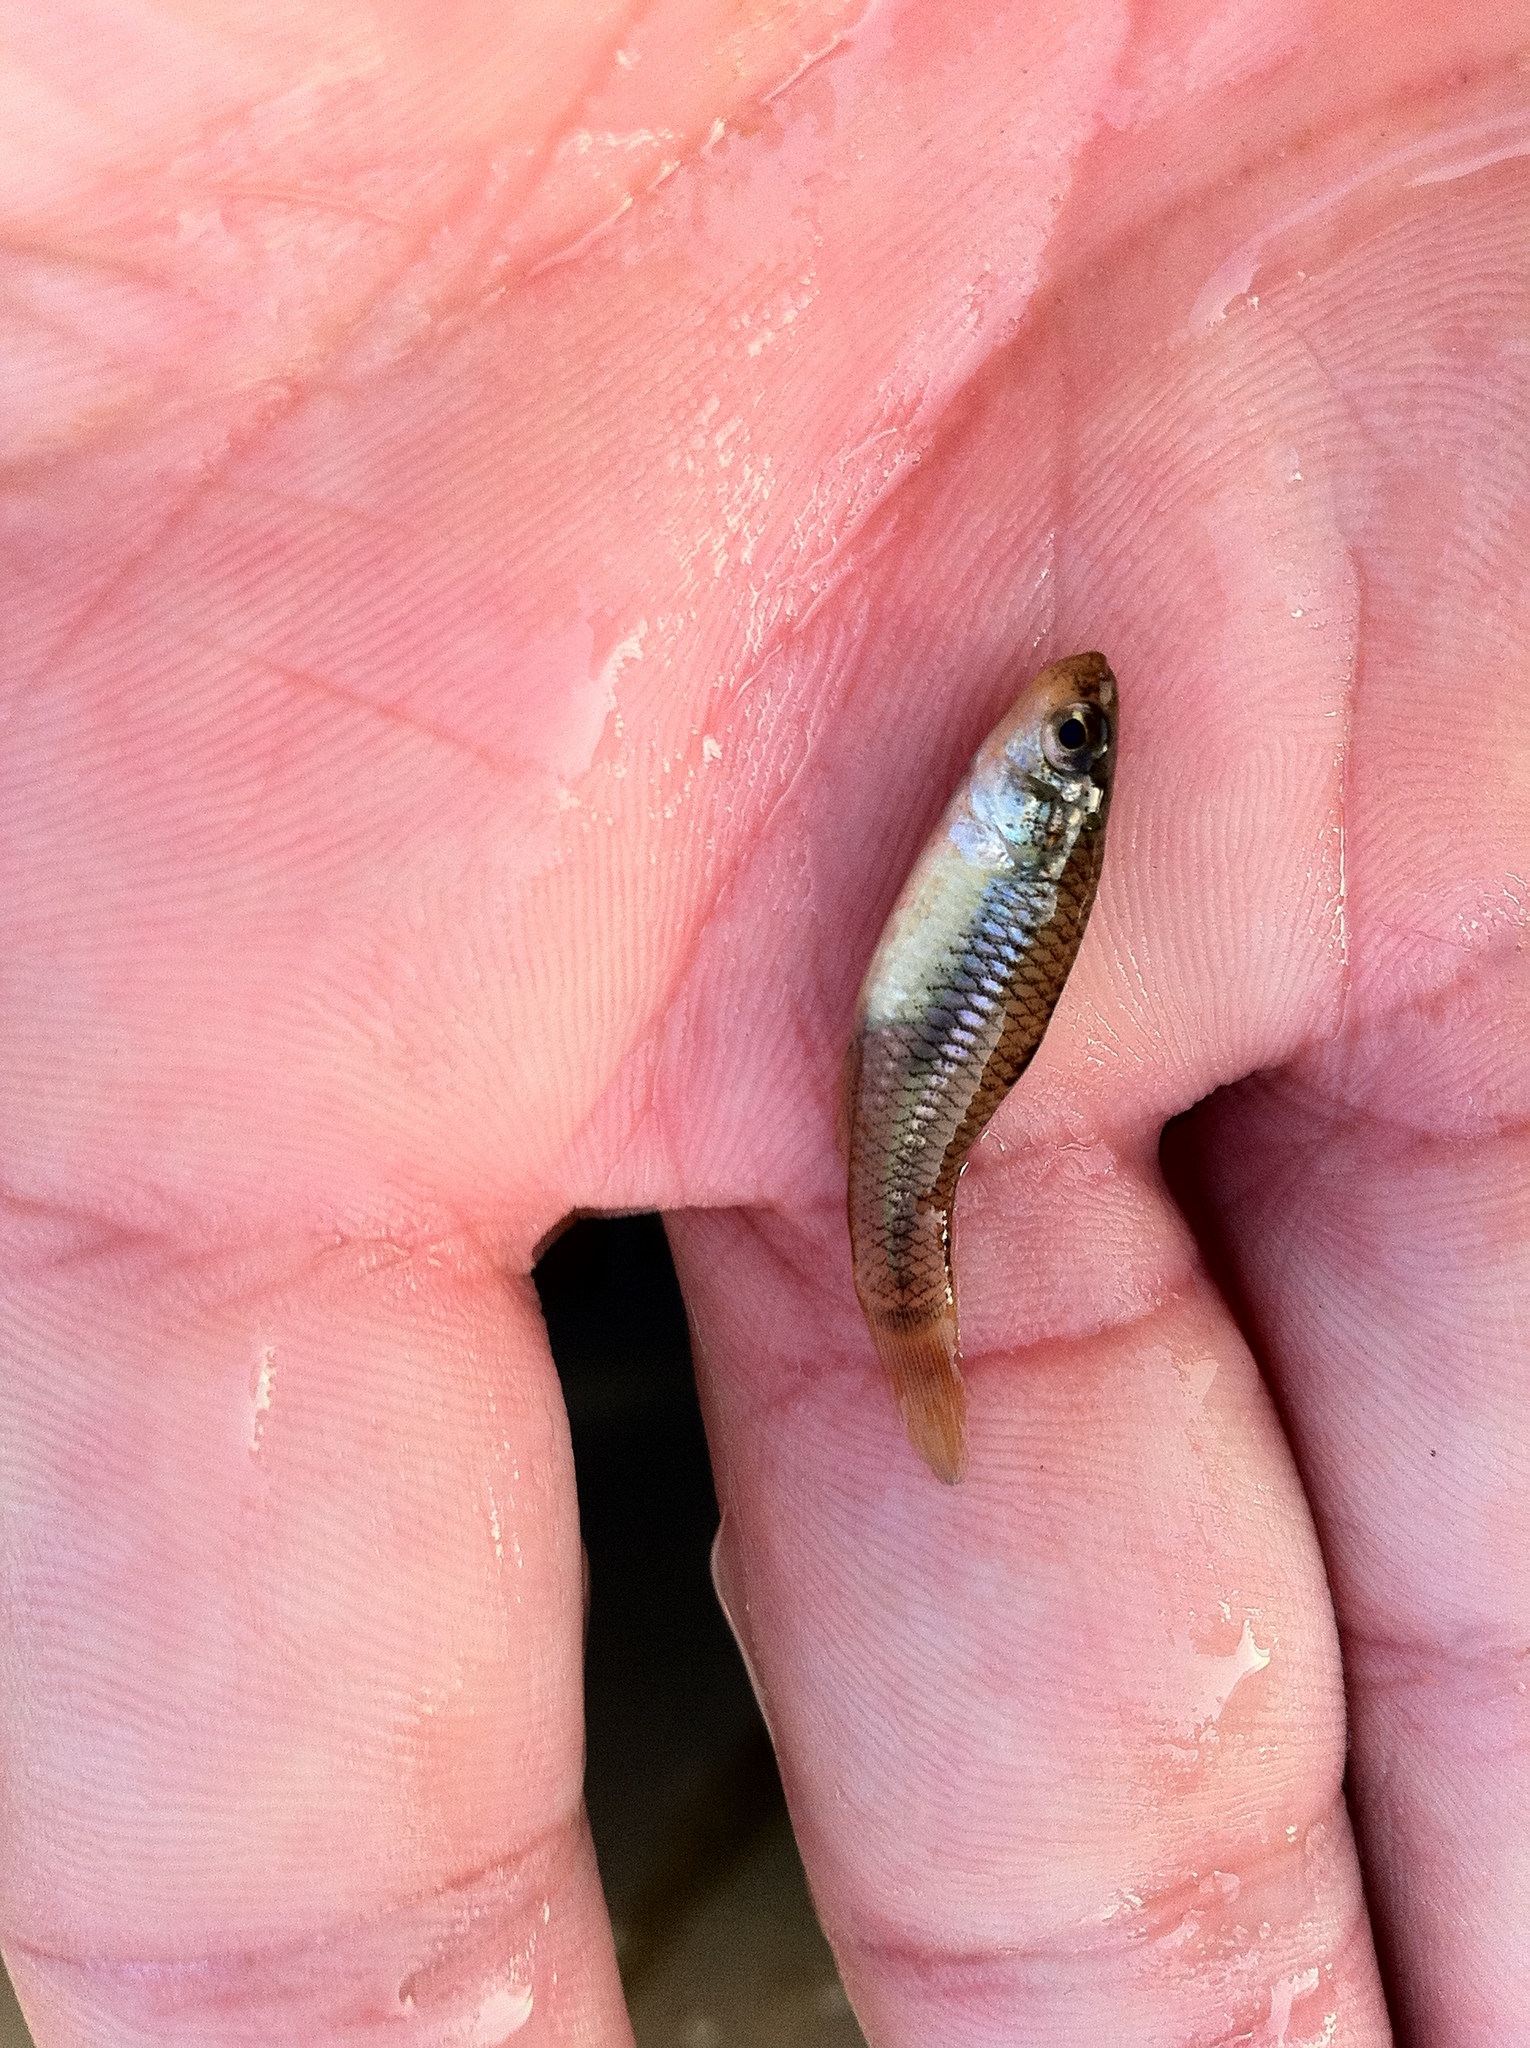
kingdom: Animalia
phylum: Chordata
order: Cyprinodontiformes
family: Fundulidae
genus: Lucania
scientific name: Lucania parva
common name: Rainwater killifish
